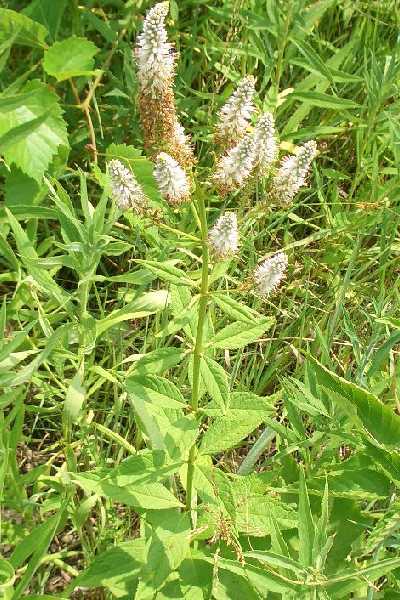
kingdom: Plantae
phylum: Tracheophyta
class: Magnoliopsida
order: Lamiales
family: Plantaginaceae
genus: Veronicastrum
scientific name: Veronicastrum virginicum
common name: Blackroot
